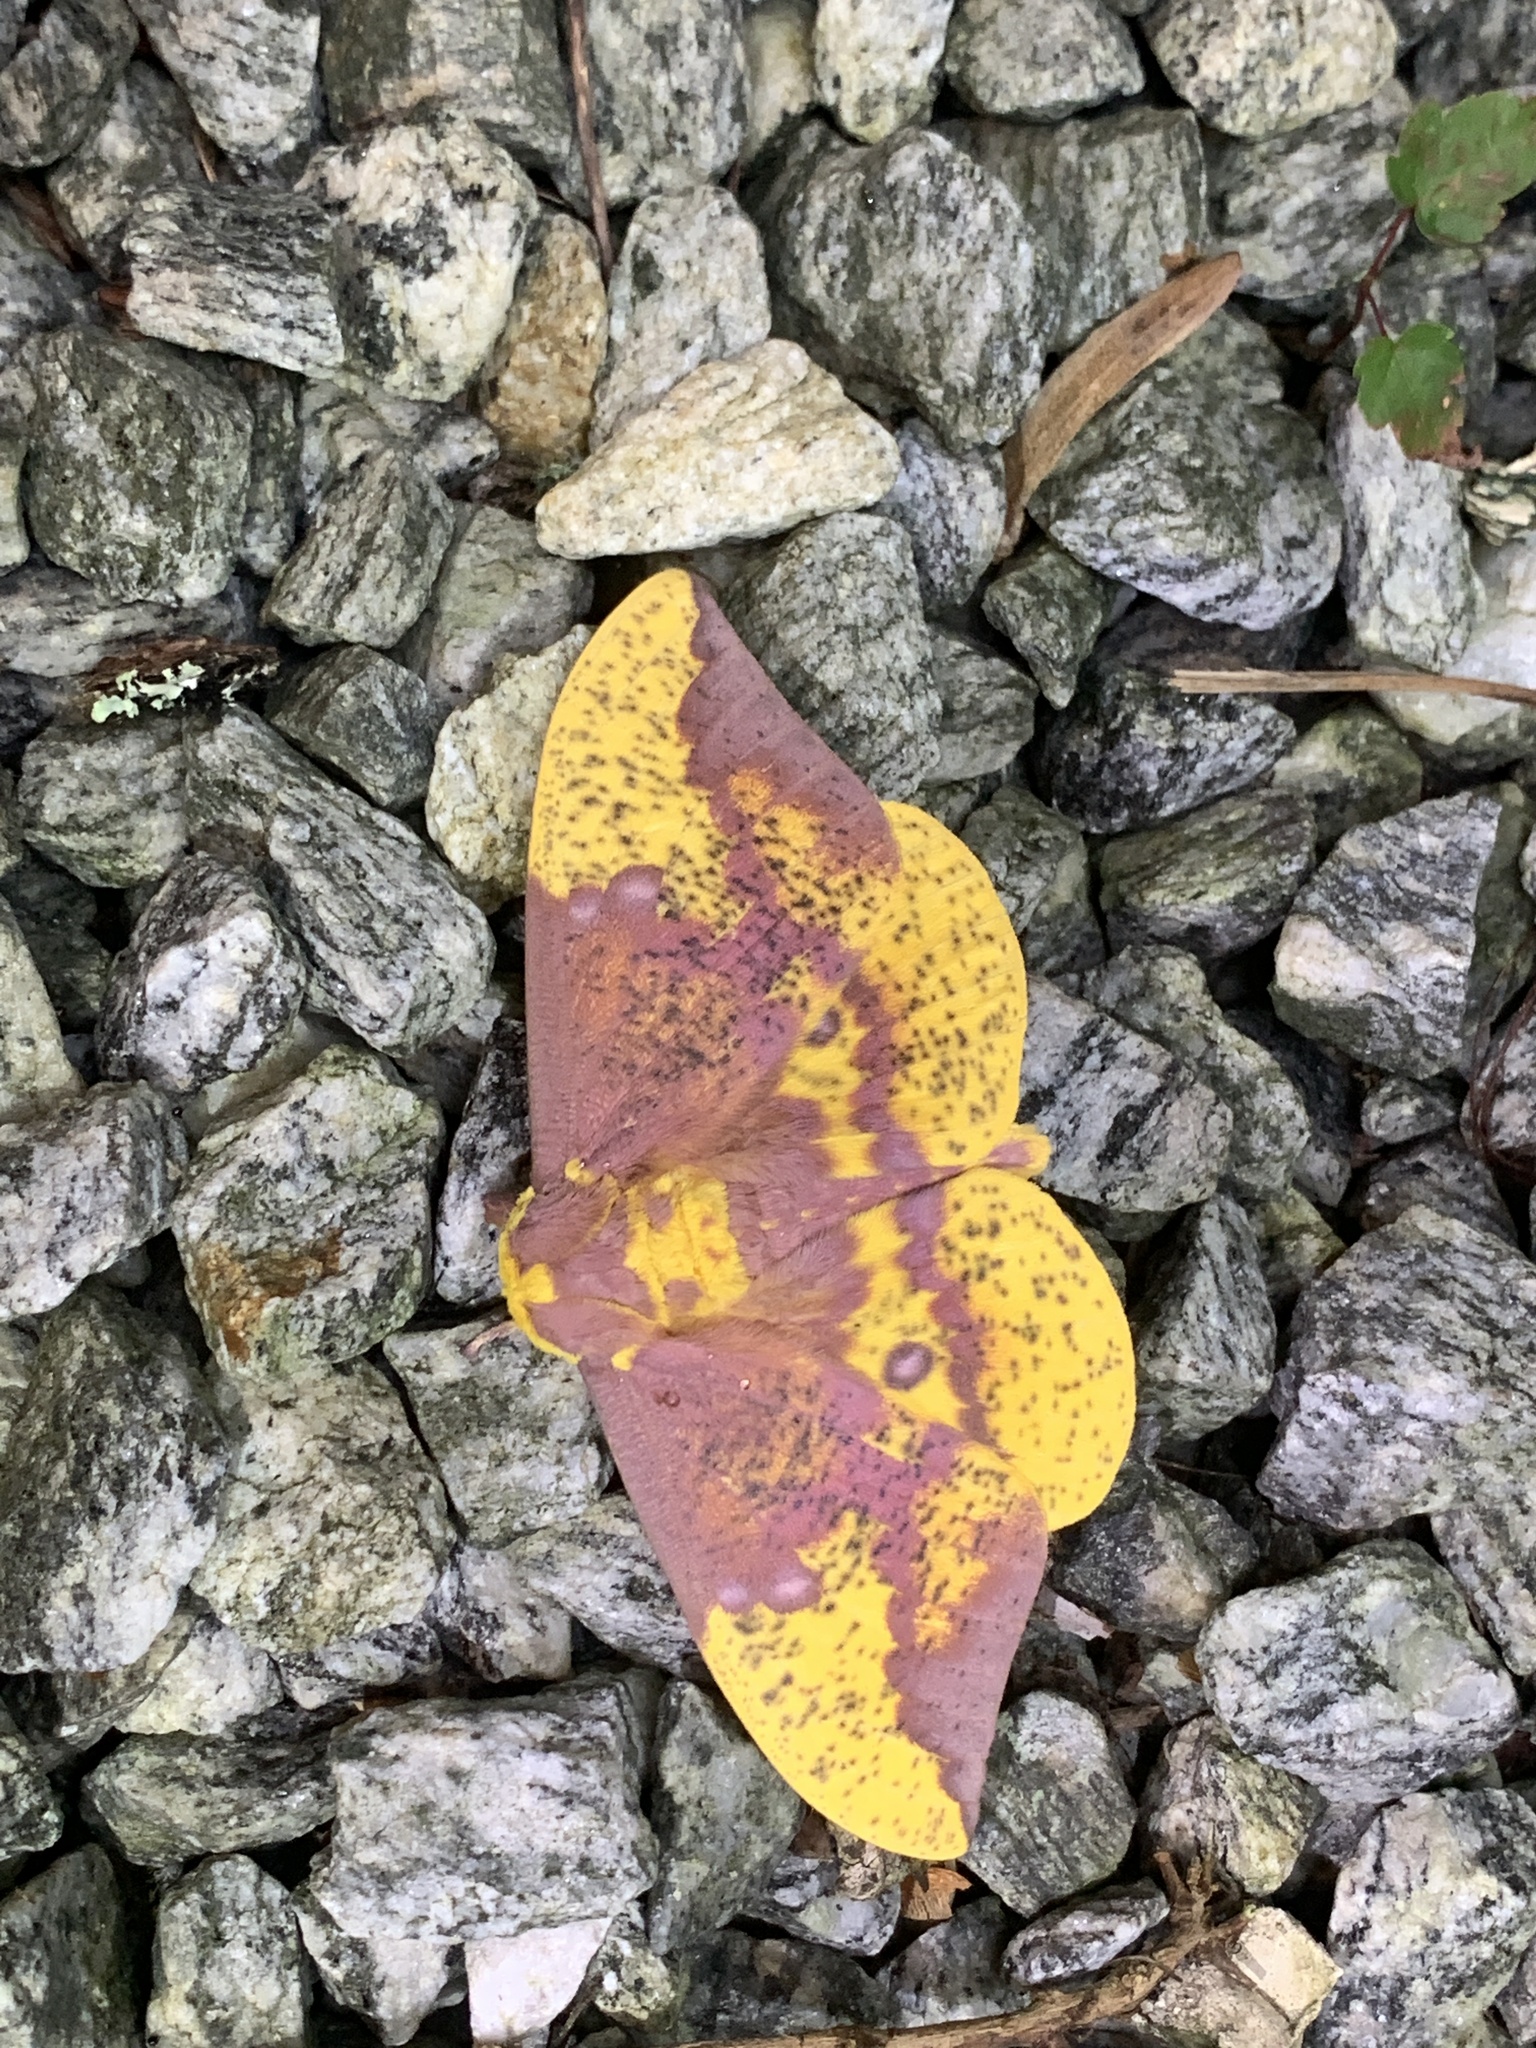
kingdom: Animalia
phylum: Arthropoda
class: Insecta
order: Lepidoptera
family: Saturniidae
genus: Eacles
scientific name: Eacles imperialis
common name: Imperial moth
